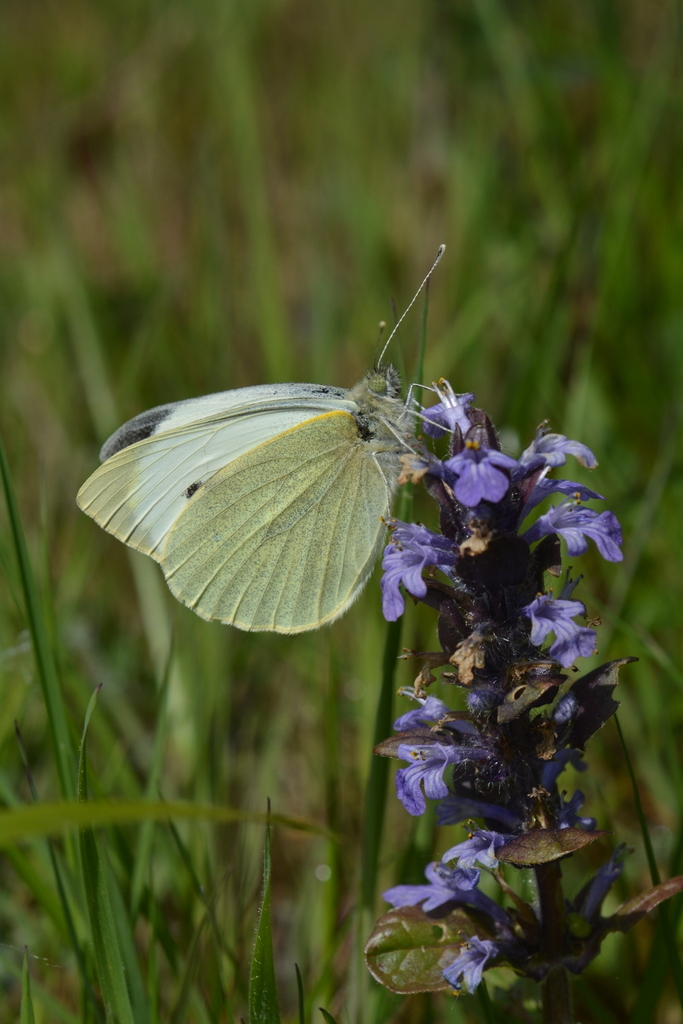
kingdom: Animalia
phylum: Arthropoda
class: Insecta
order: Lepidoptera
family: Pieridae
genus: Pieris
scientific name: Pieris brassicae
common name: Large white
